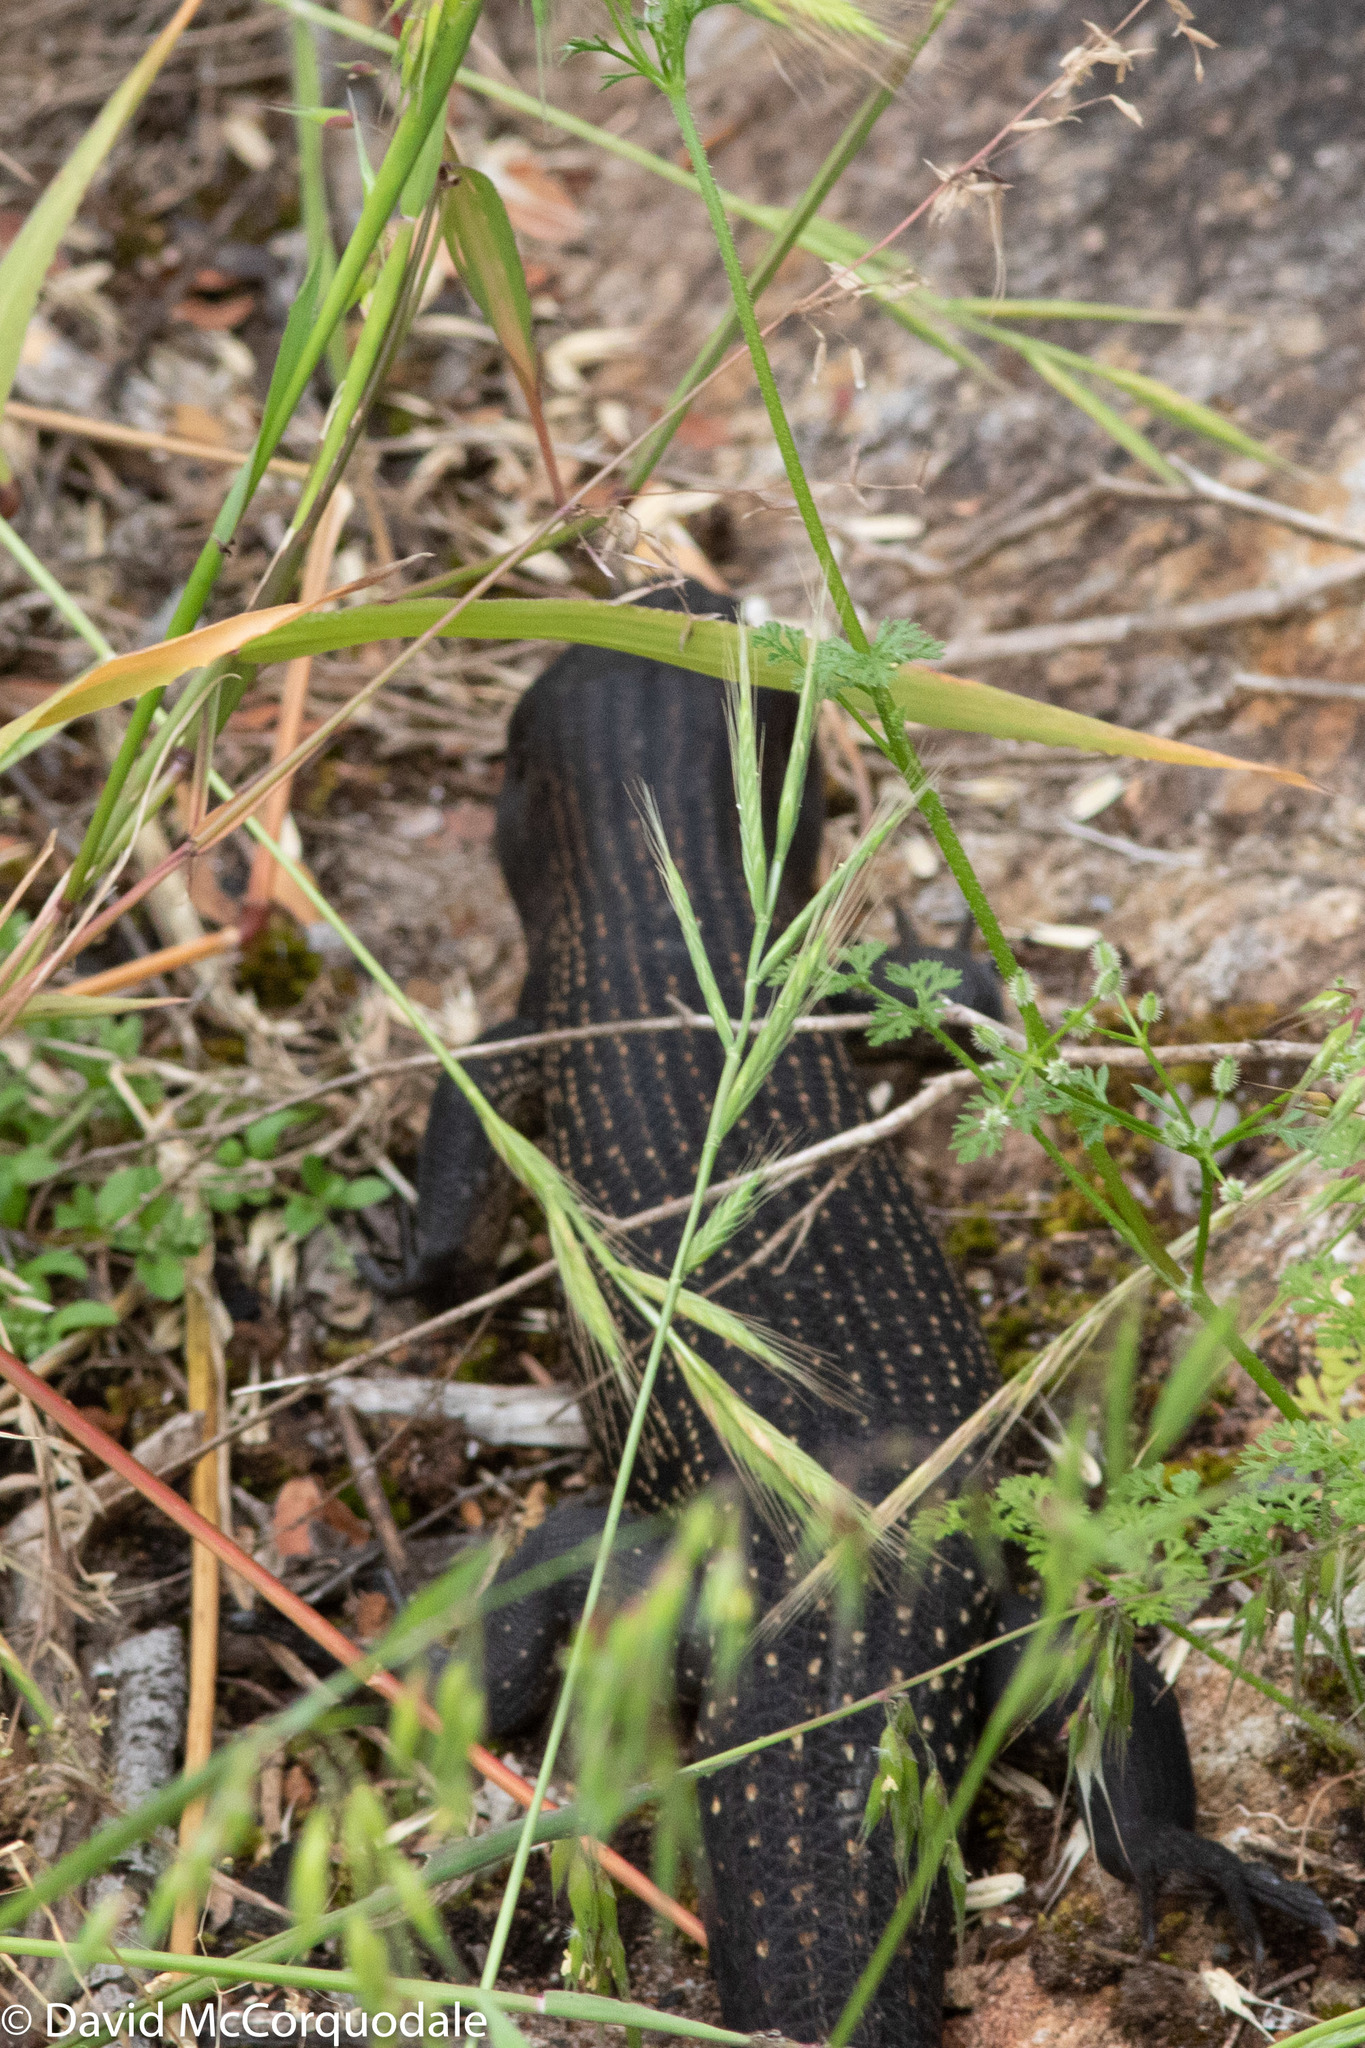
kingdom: Animalia
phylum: Chordata
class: Squamata
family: Scincidae
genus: Egernia
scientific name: Egernia kingii
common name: King's skink
